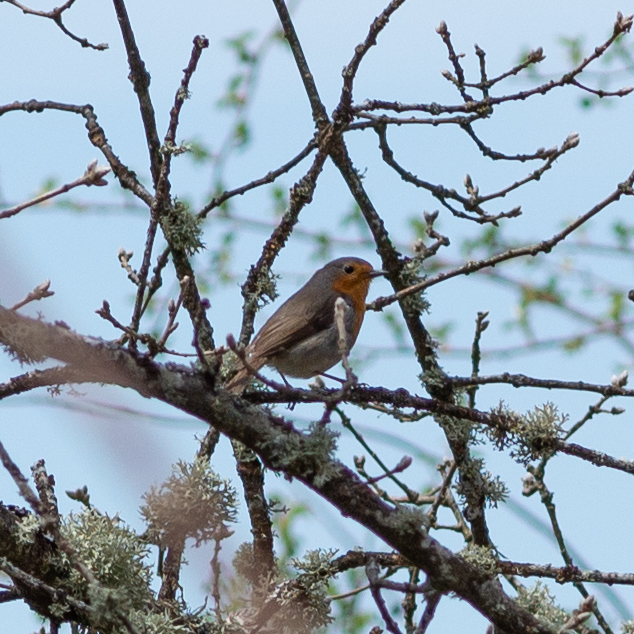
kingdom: Animalia
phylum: Chordata
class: Aves
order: Passeriformes
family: Muscicapidae
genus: Erithacus
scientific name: Erithacus rubecula
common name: European robin
